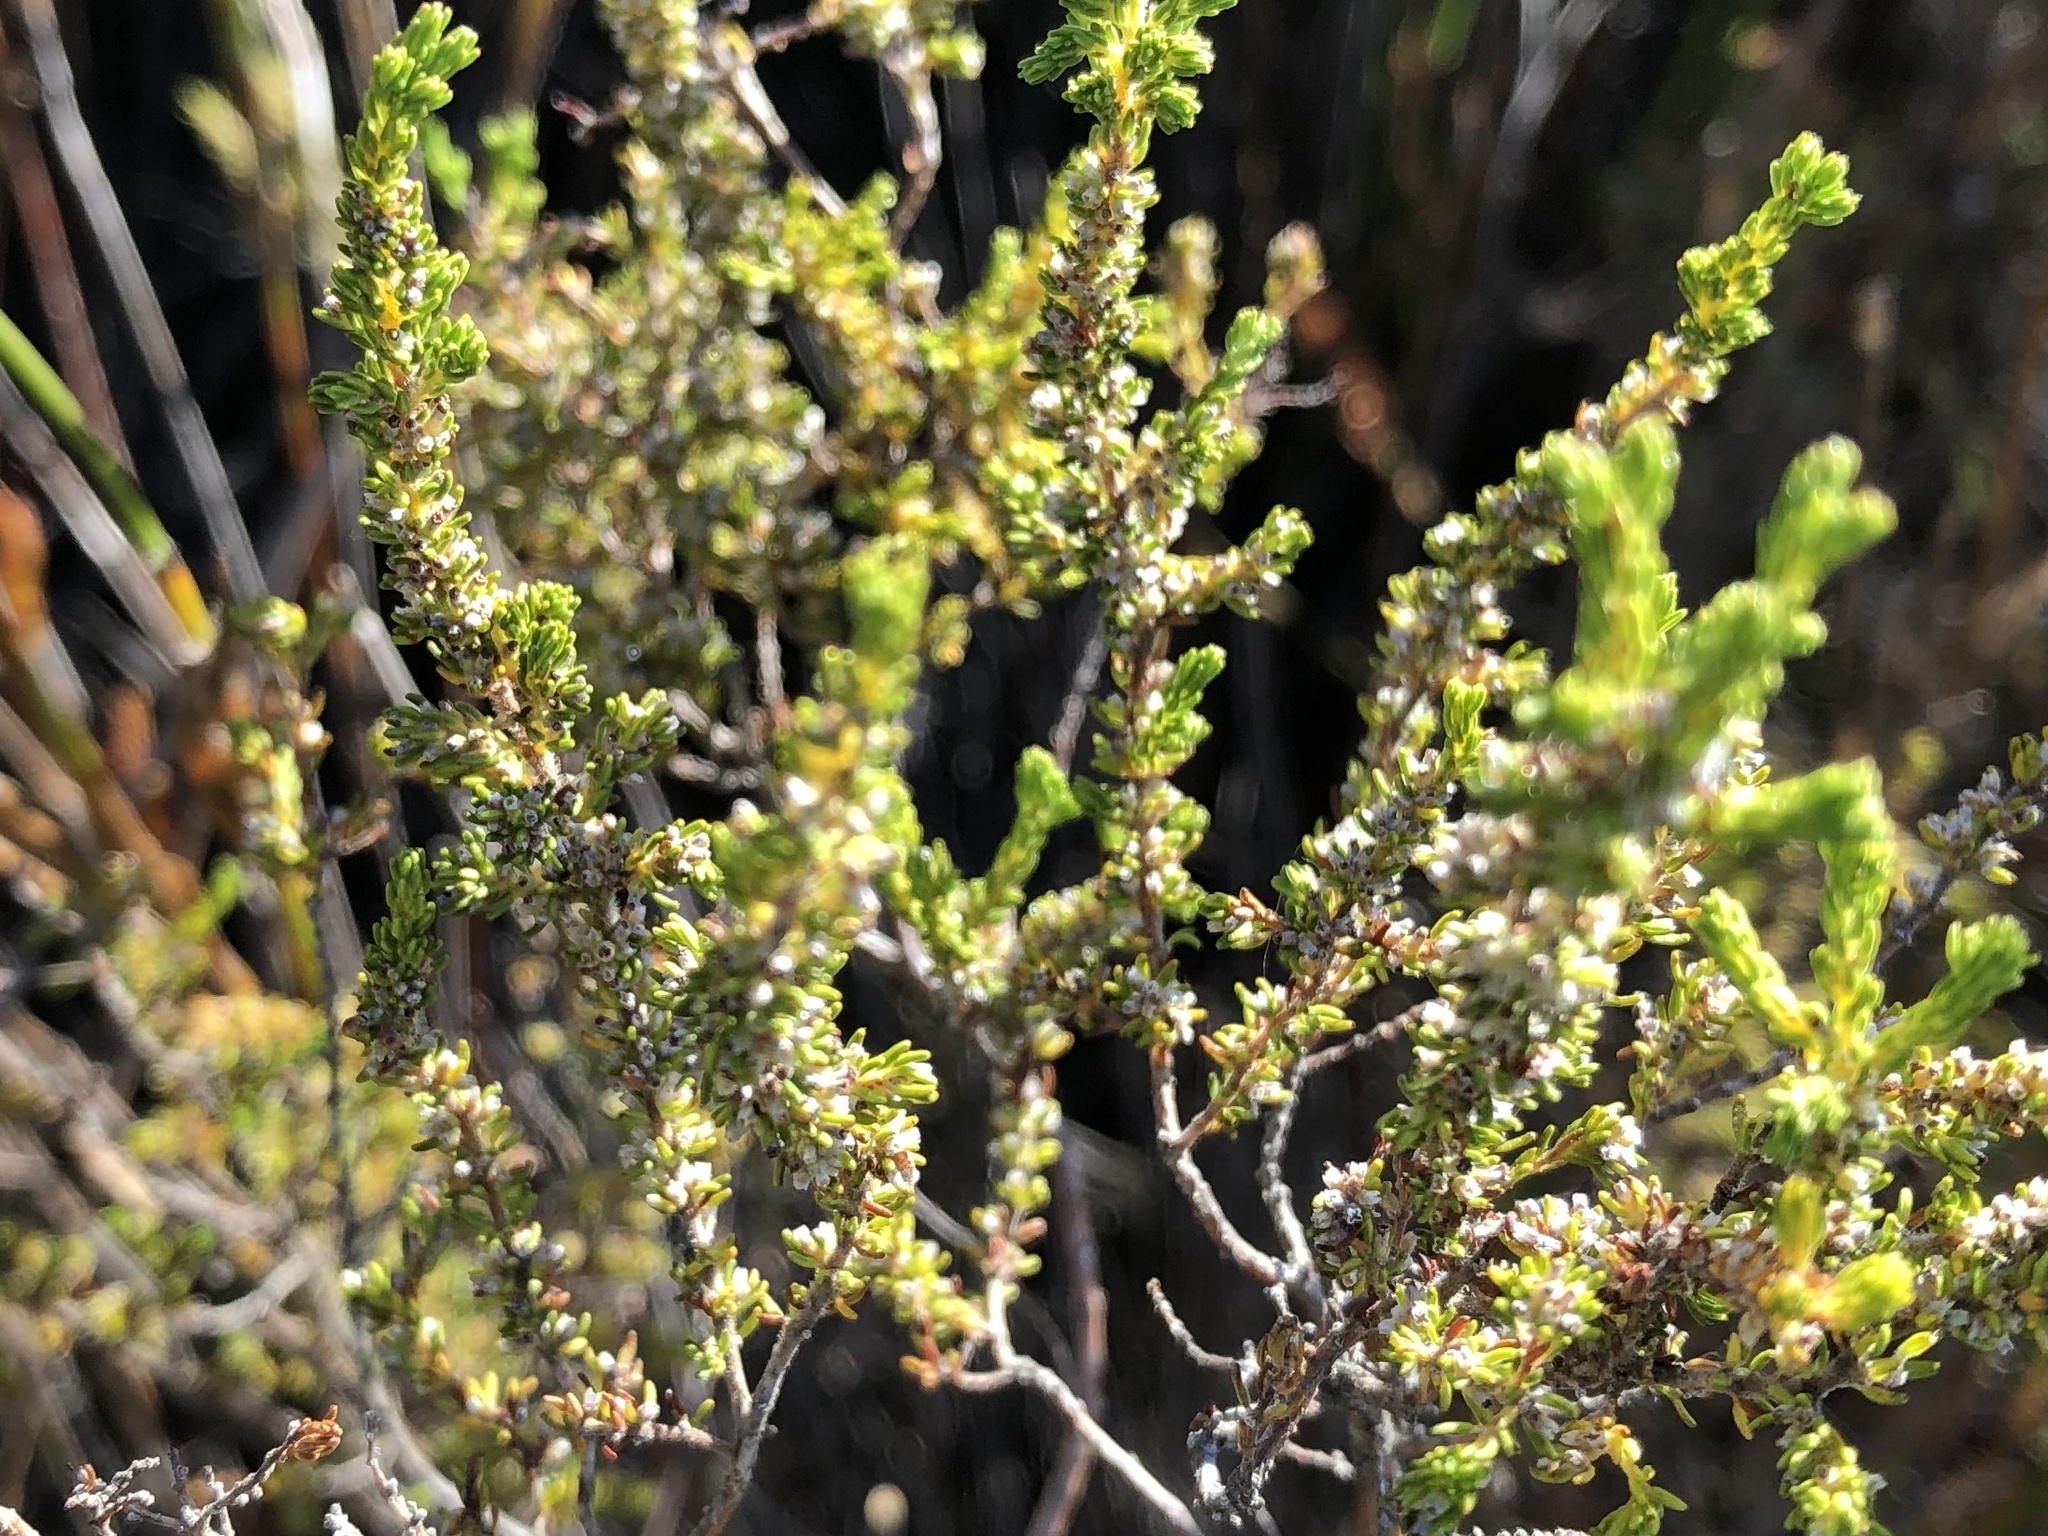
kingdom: Plantae
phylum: Tracheophyta
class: Magnoliopsida
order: Ericales
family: Ericaceae
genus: Erica
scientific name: Erica muscosa
